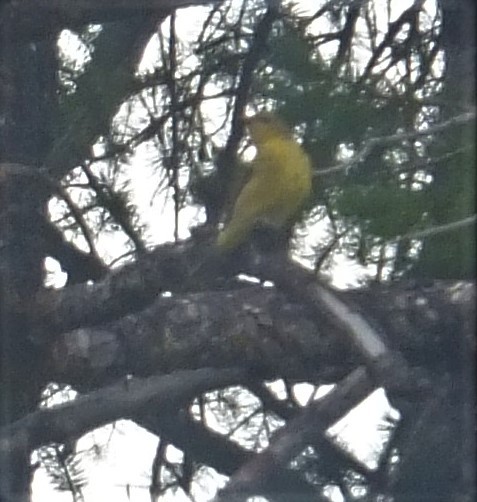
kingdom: Animalia
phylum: Chordata
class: Aves
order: Passeriformes
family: Cardinalidae
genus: Piranga
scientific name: Piranga ludoviciana
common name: Western tanager
